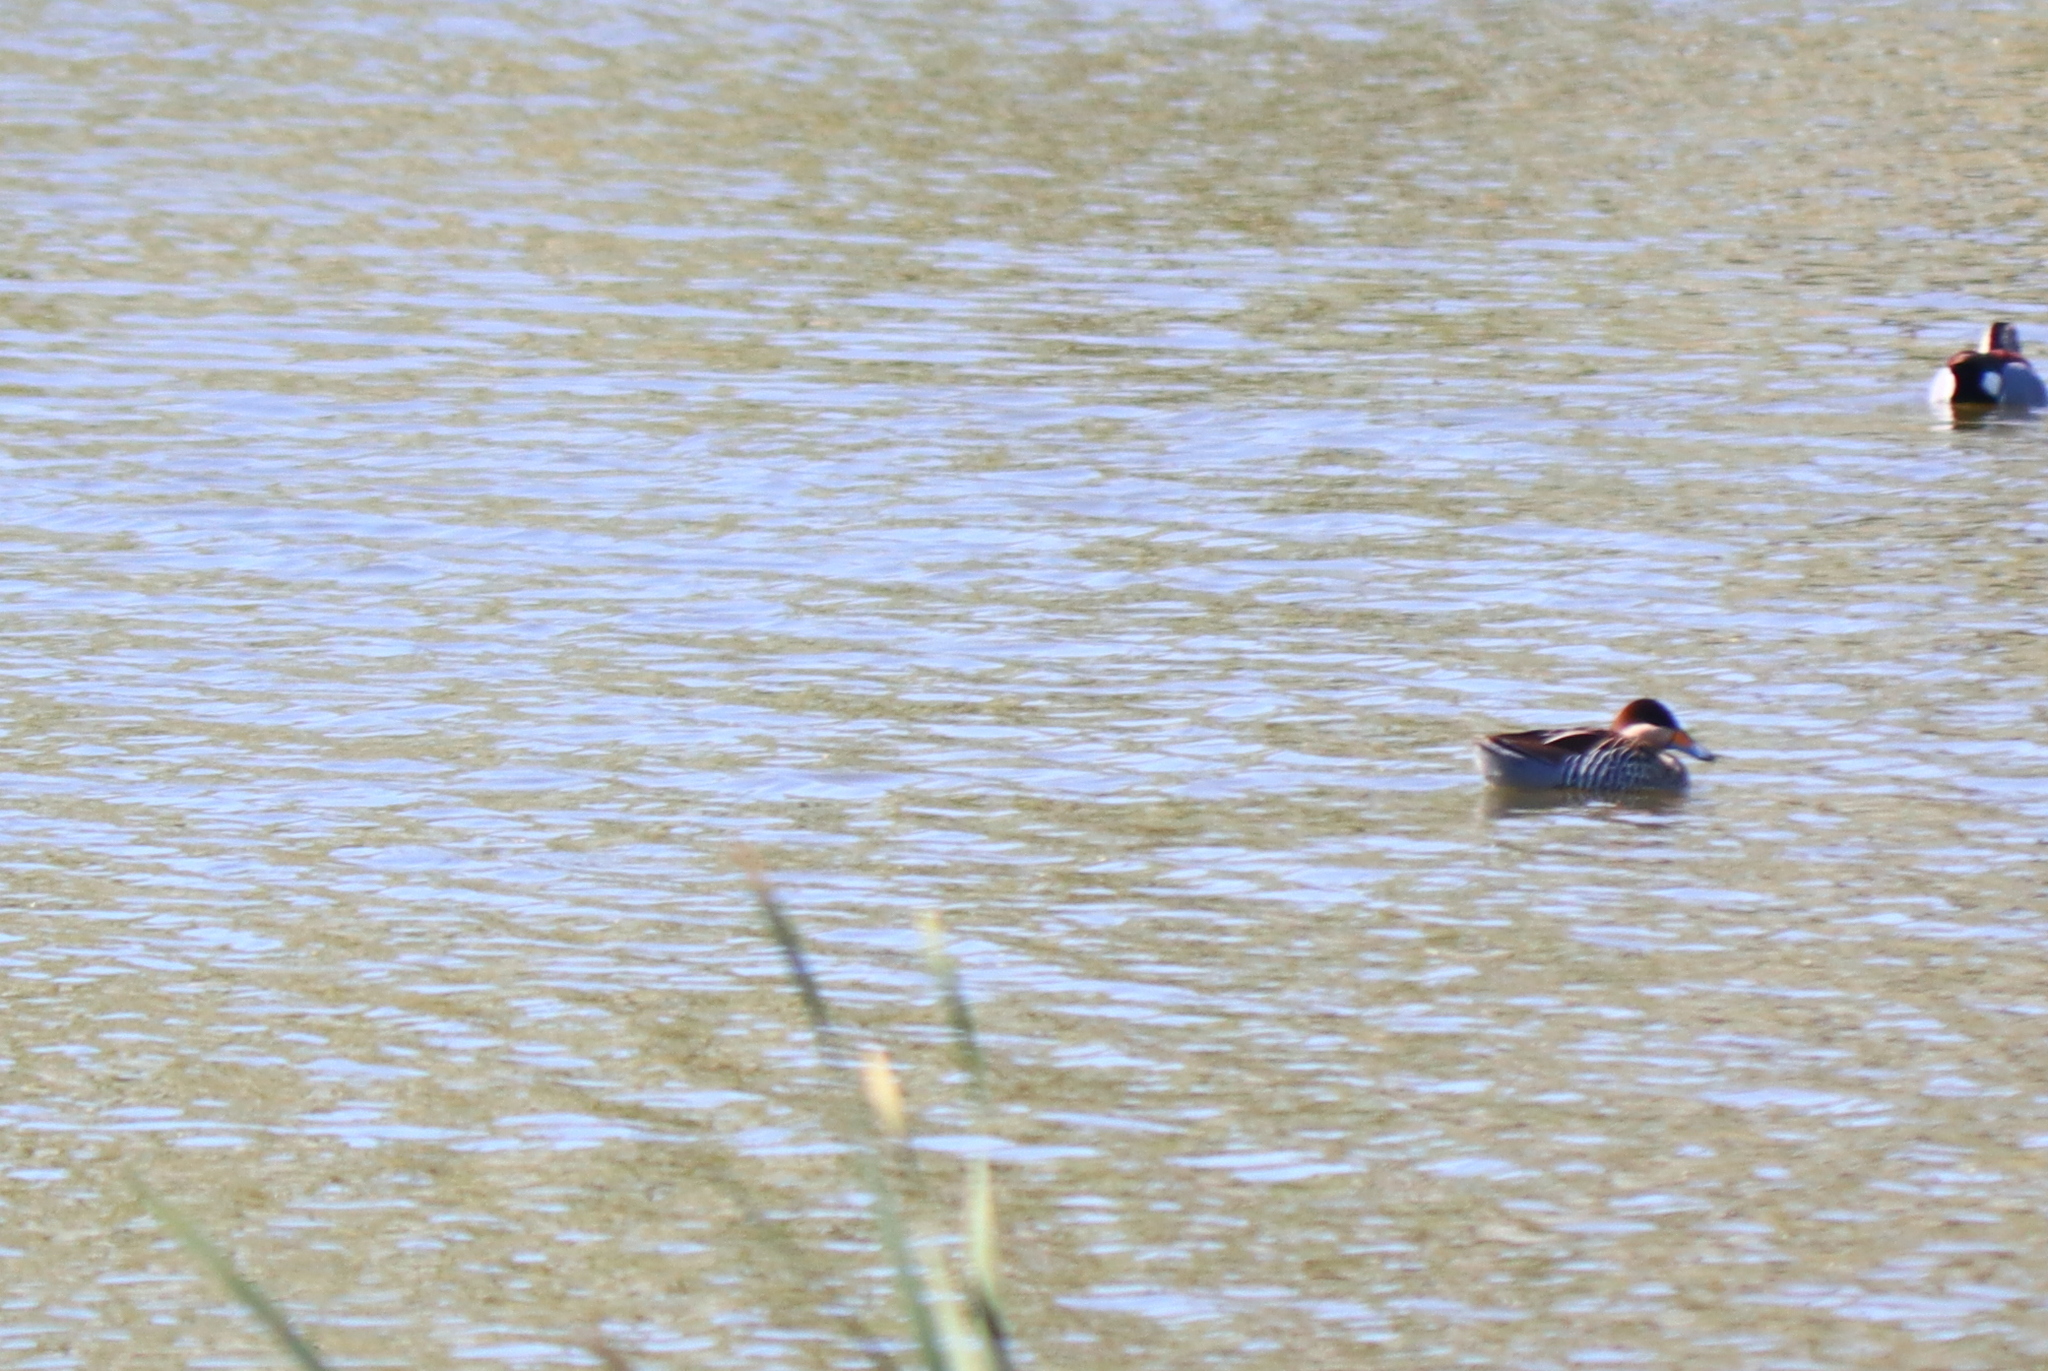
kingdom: Animalia
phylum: Chordata
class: Aves
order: Anseriformes
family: Anatidae
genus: Spatula
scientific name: Spatula versicolor
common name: Silver teal
